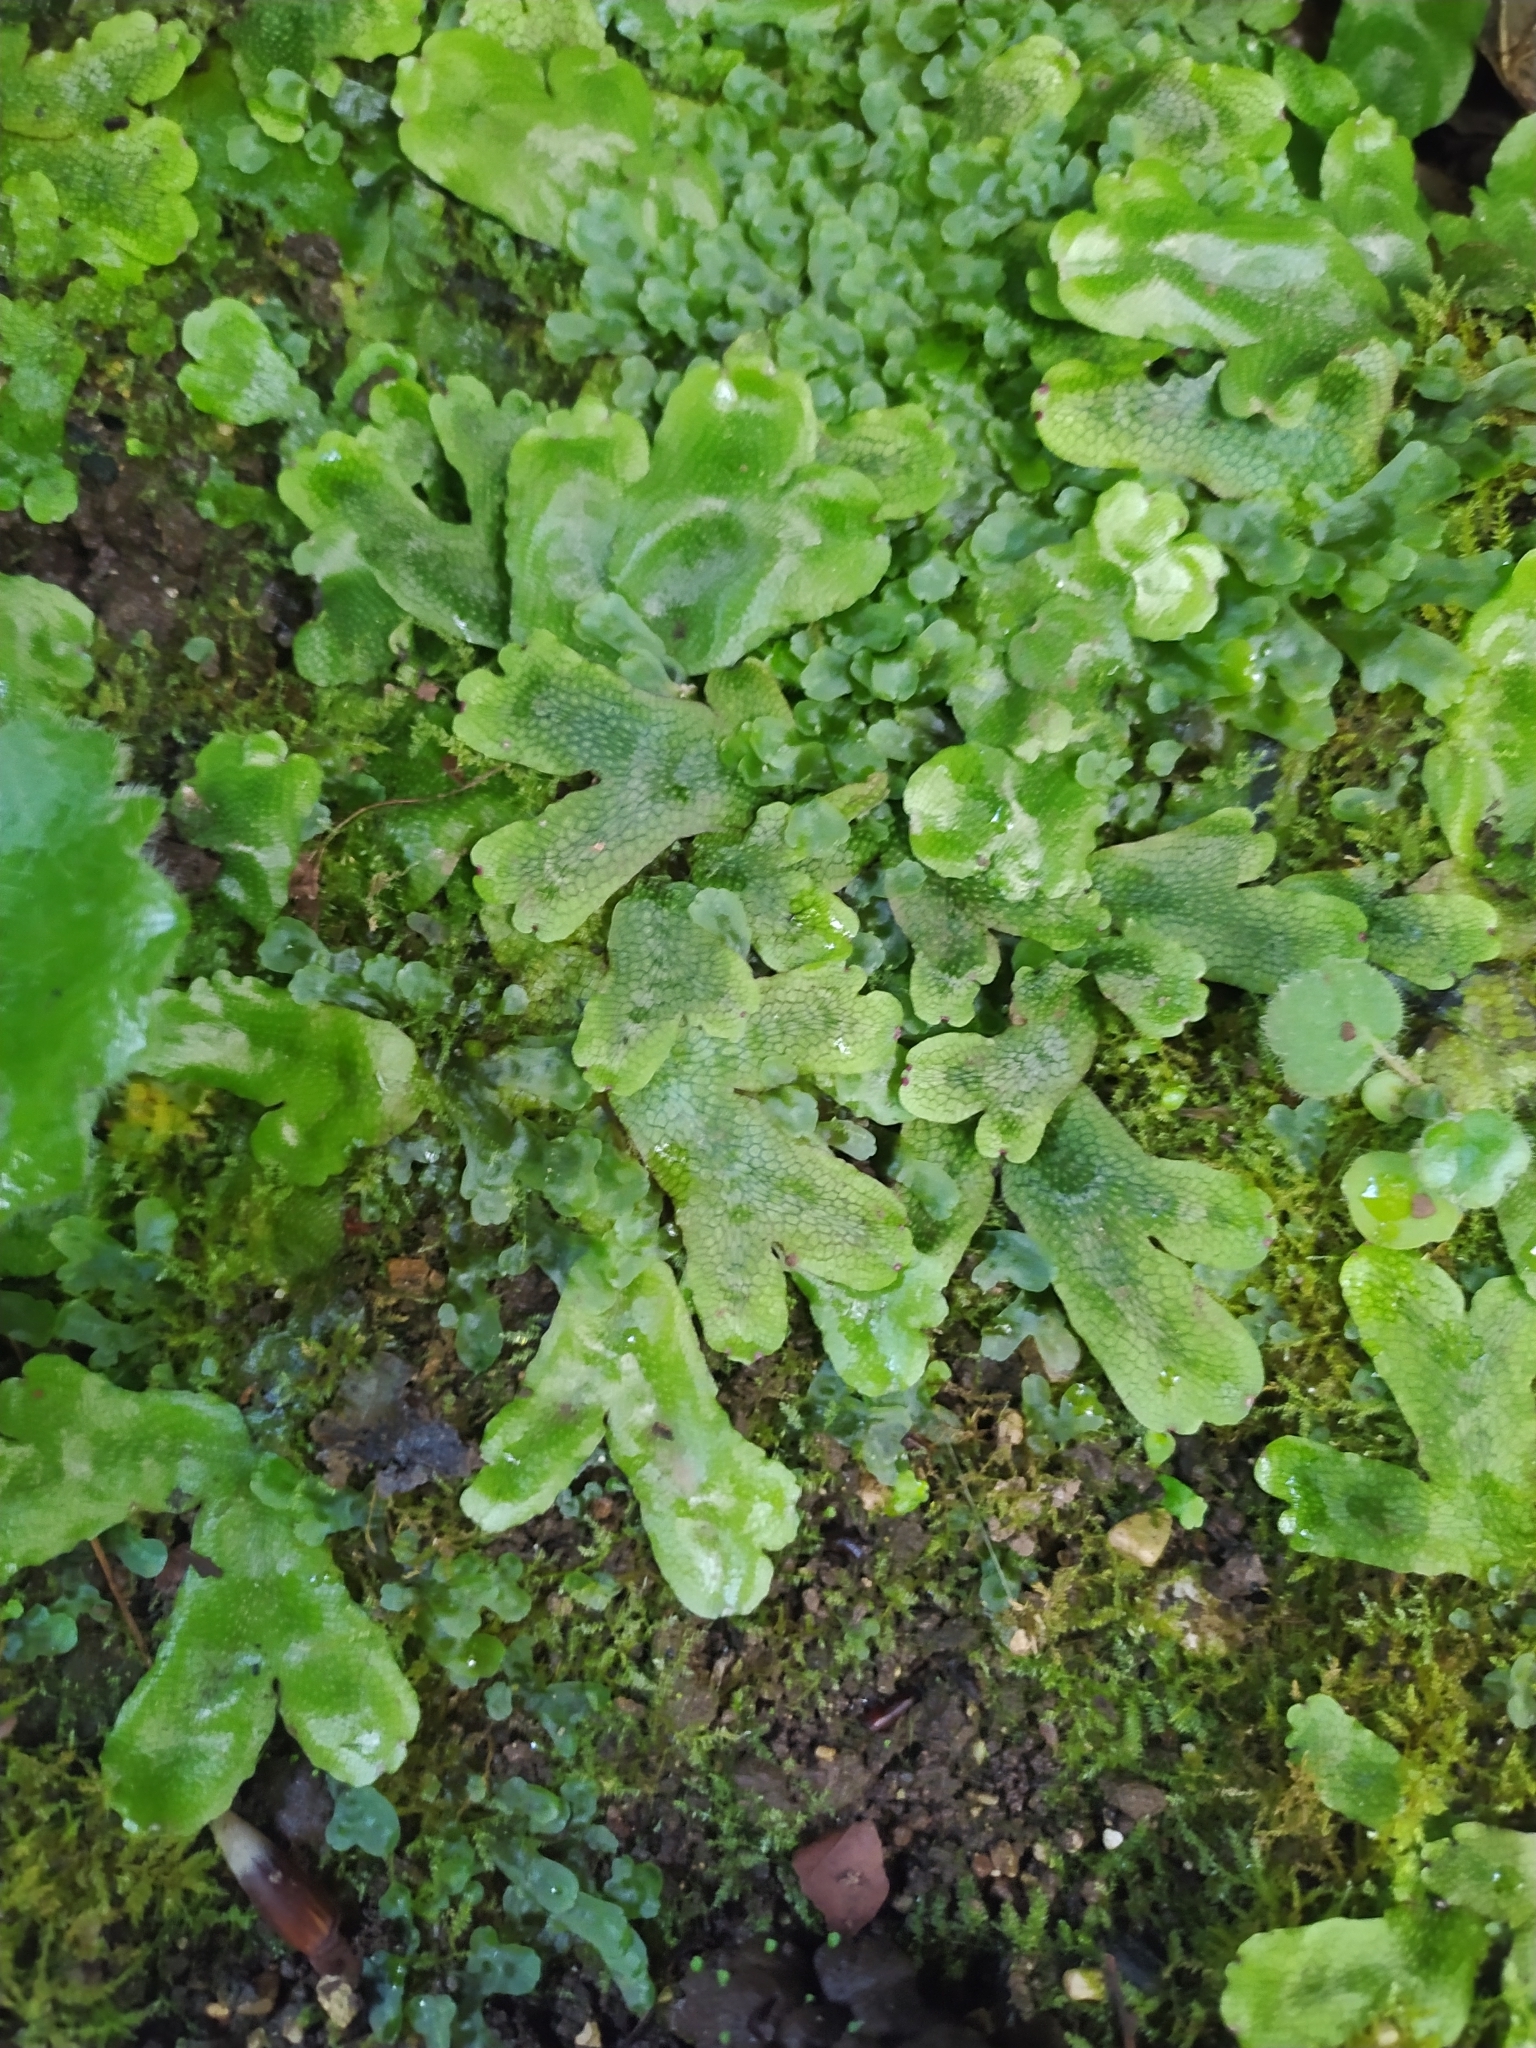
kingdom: Plantae
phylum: Marchantiophyta
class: Marchantiopsida
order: Marchantiales
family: Conocephalaceae
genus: Conocephalum
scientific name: Conocephalum conicum
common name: Great scented liverwort
